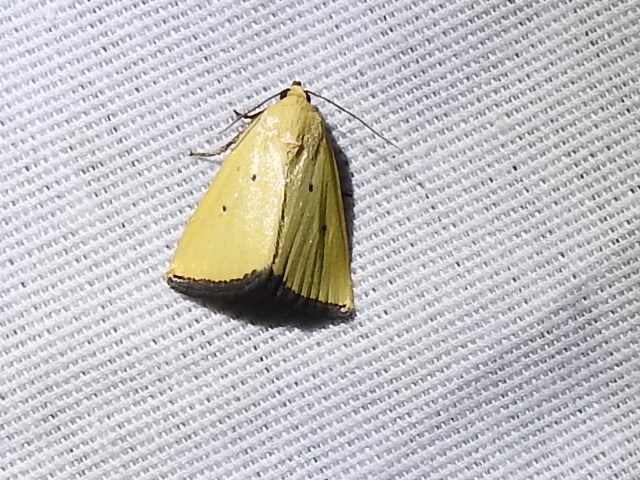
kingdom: Animalia
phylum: Arthropoda
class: Insecta
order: Lepidoptera
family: Noctuidae
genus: Marimatha
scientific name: Marimatha nigrofimbria
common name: Black-bordered lemon moth
